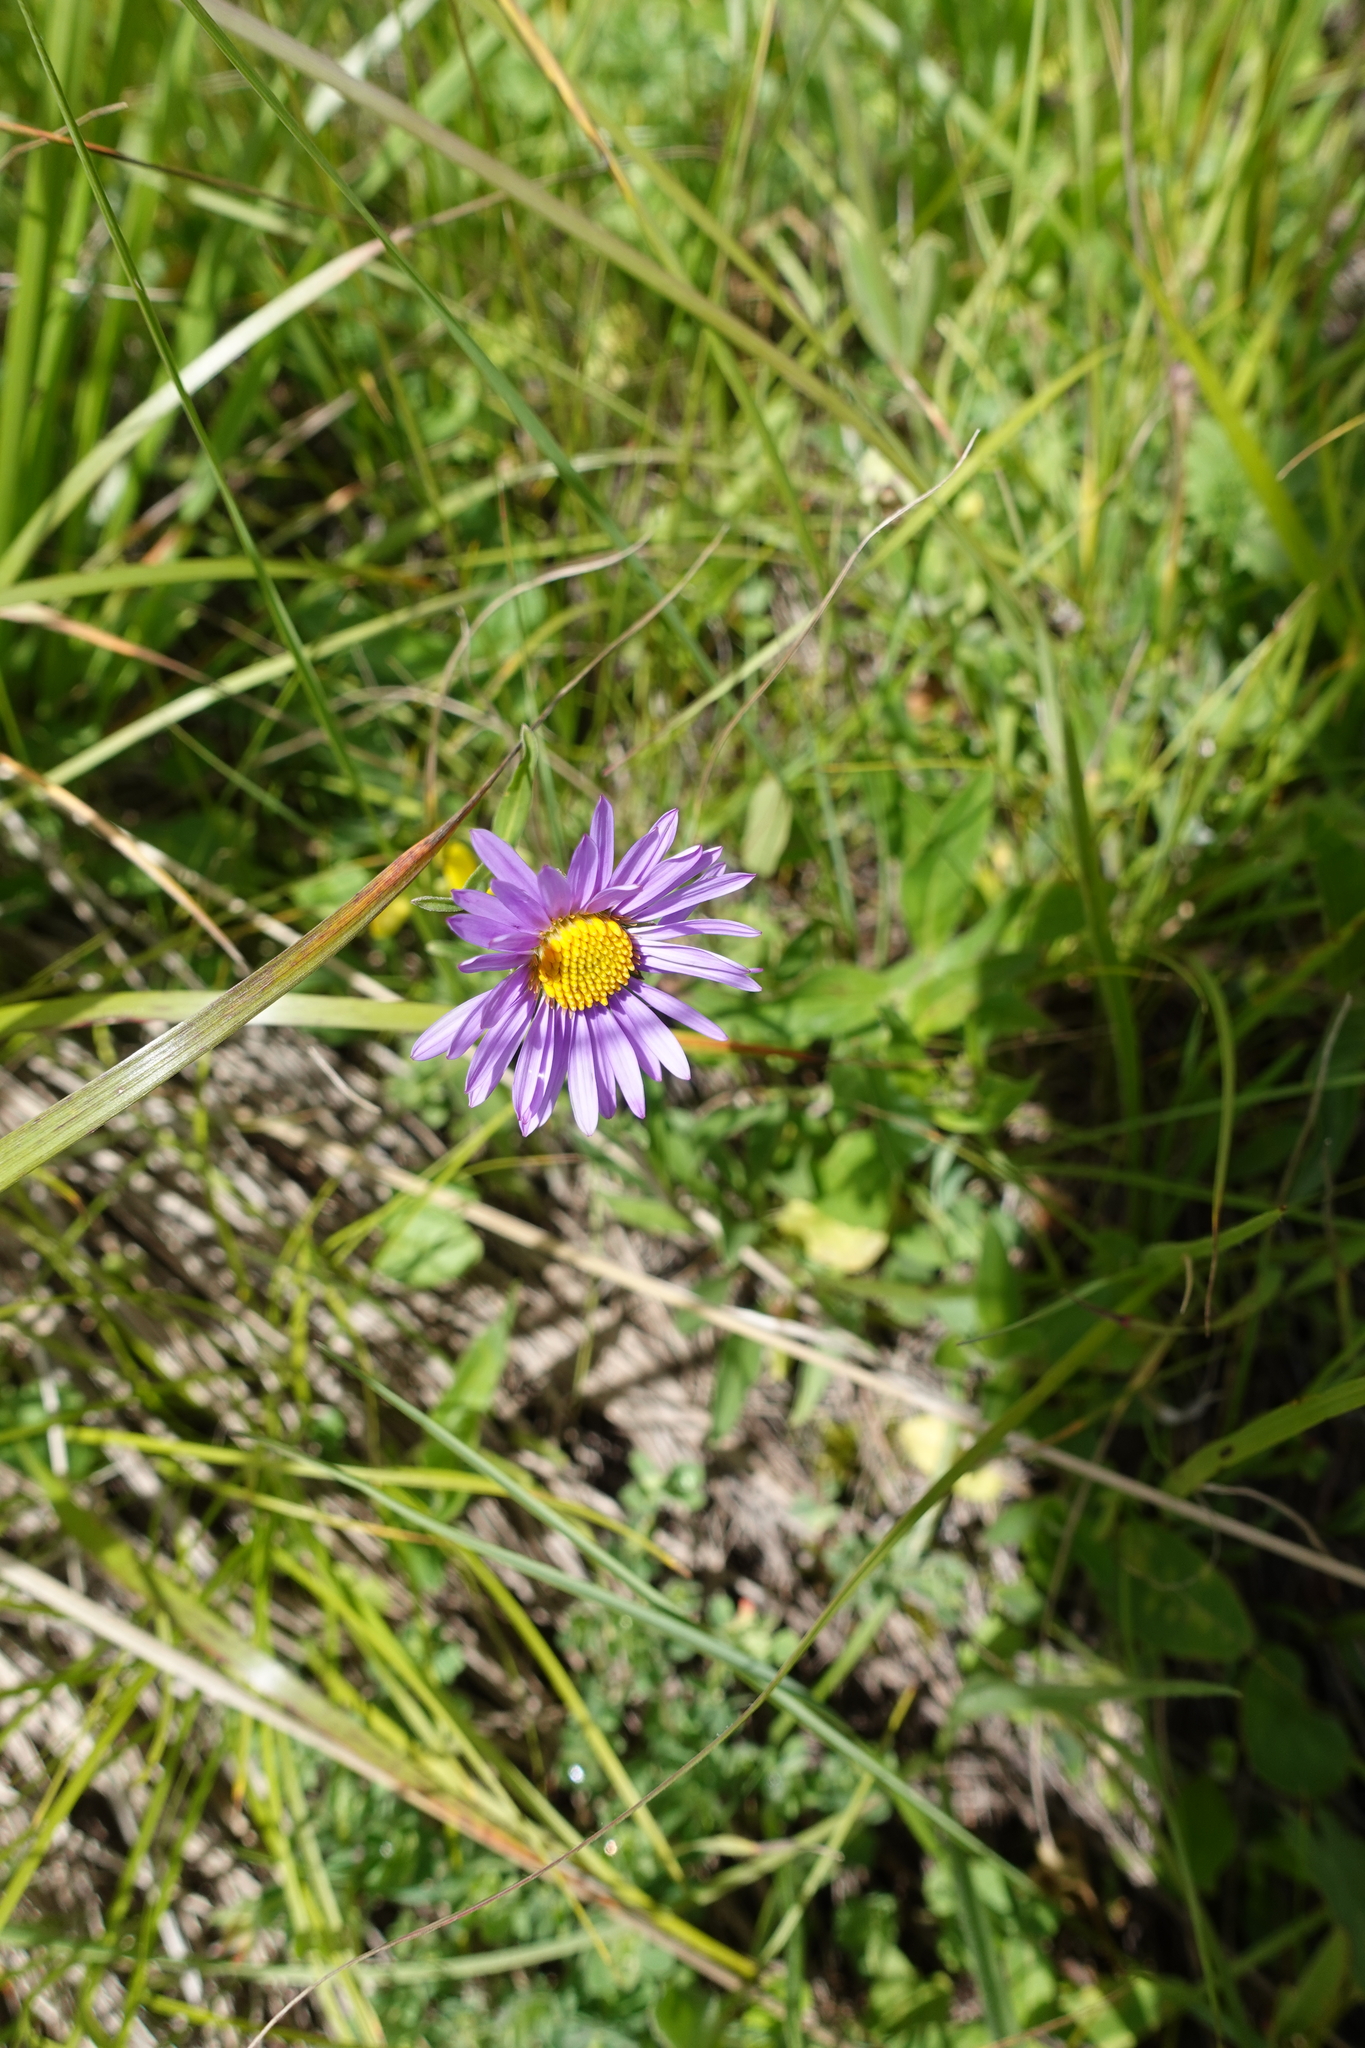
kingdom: Plantae
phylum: Tracheophyta
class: Magnoliopsida
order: Asterales
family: Asteraceae
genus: Aster
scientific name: Aster alpinus
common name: Alpine aster
